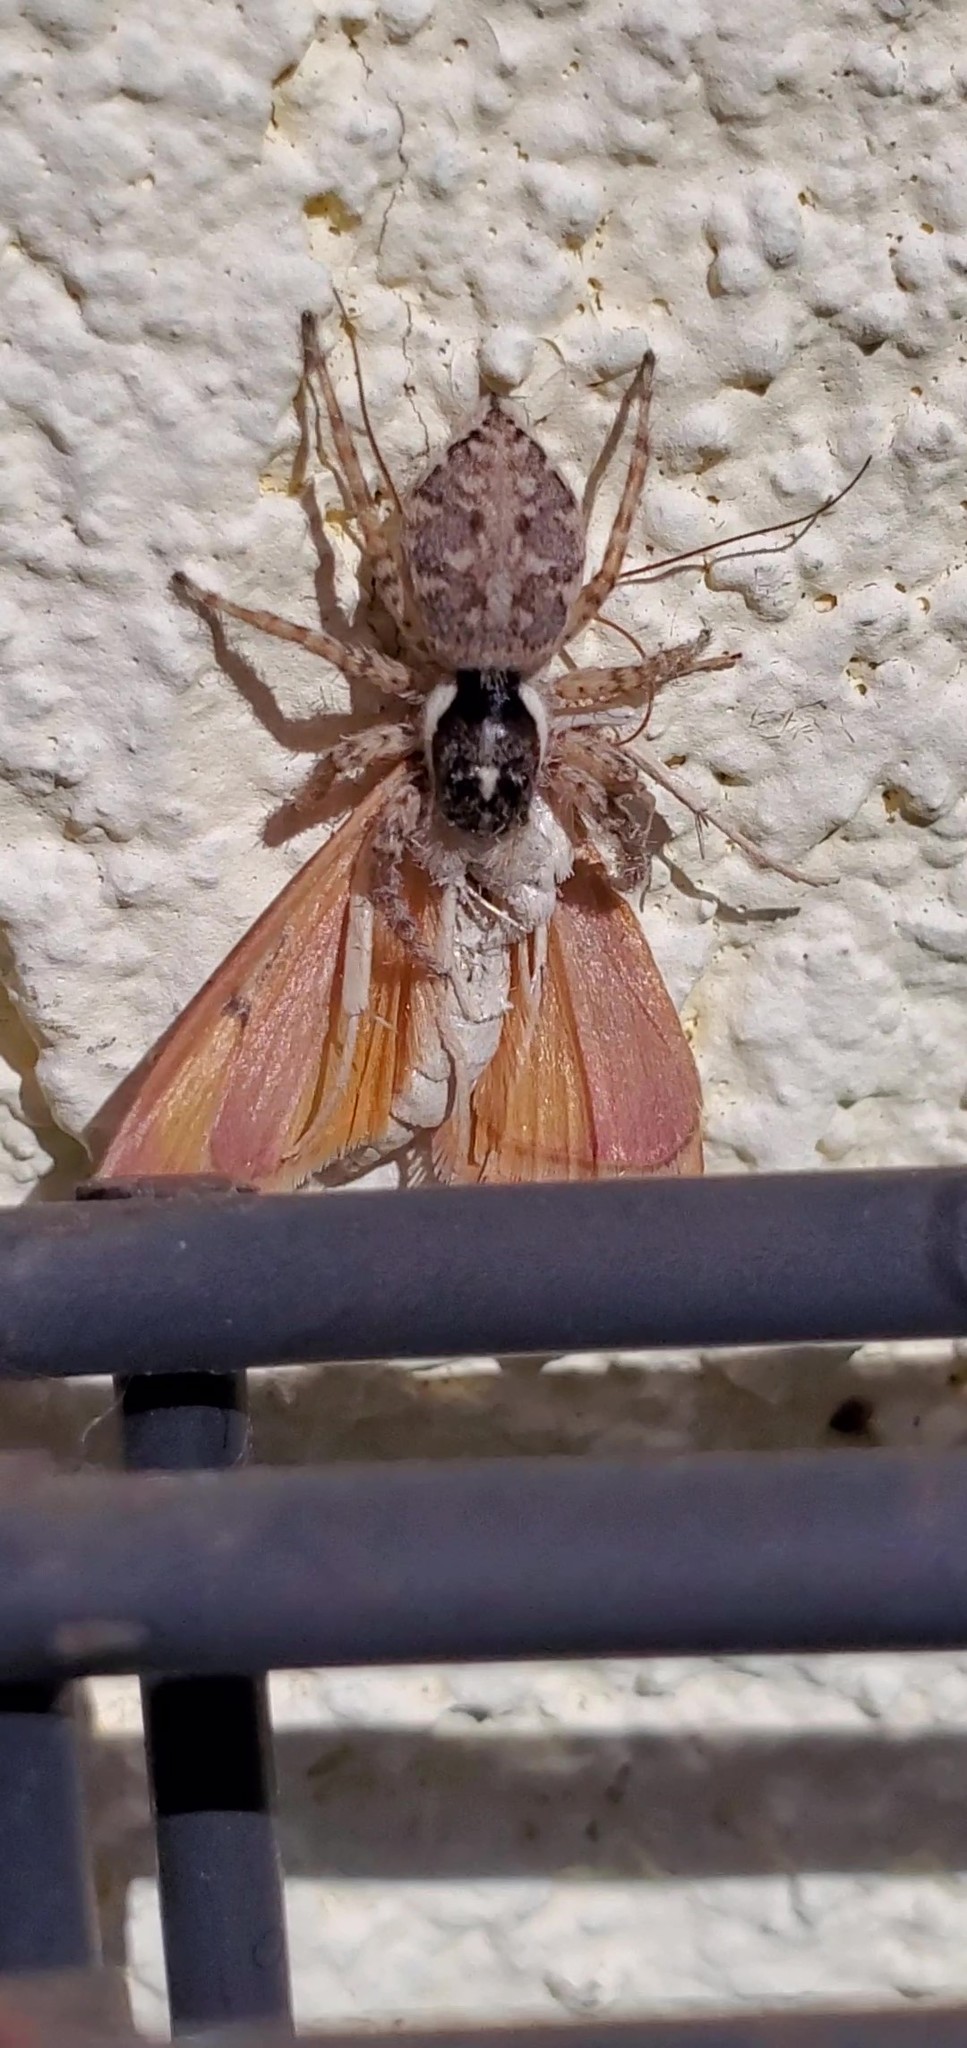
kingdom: Animalia
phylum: Arthropoda
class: Arachnida
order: Araneae
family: Salticidae
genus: Menemerus
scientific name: Menemerus semilimbatus
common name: Jumping spider
